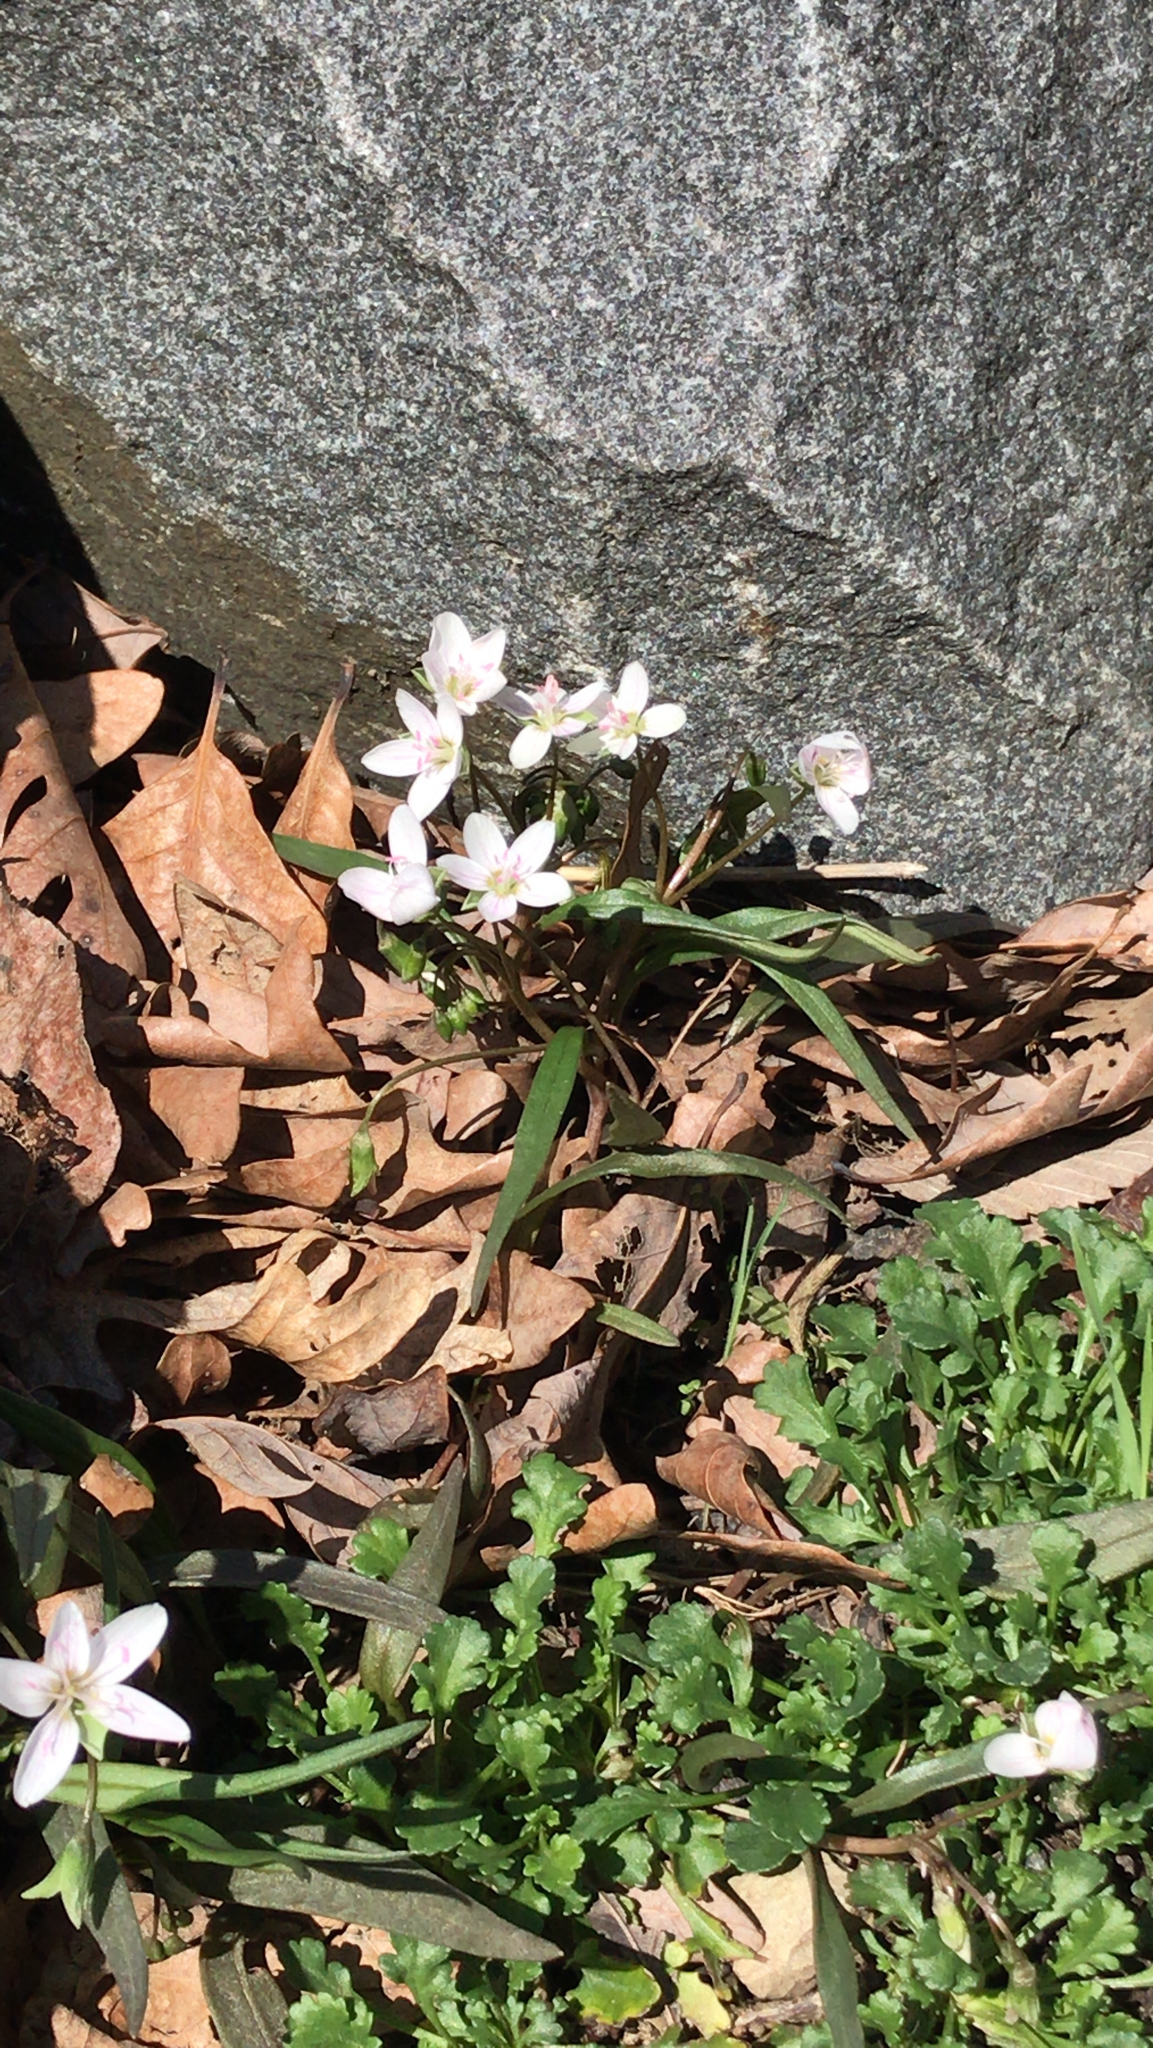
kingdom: Plantae
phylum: Tracheophyta
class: Magnoliopsida
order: Caryophyllales
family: Montiaceae
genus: Claytonia
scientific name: Claytonia virginica
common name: Virginia springbeauty
